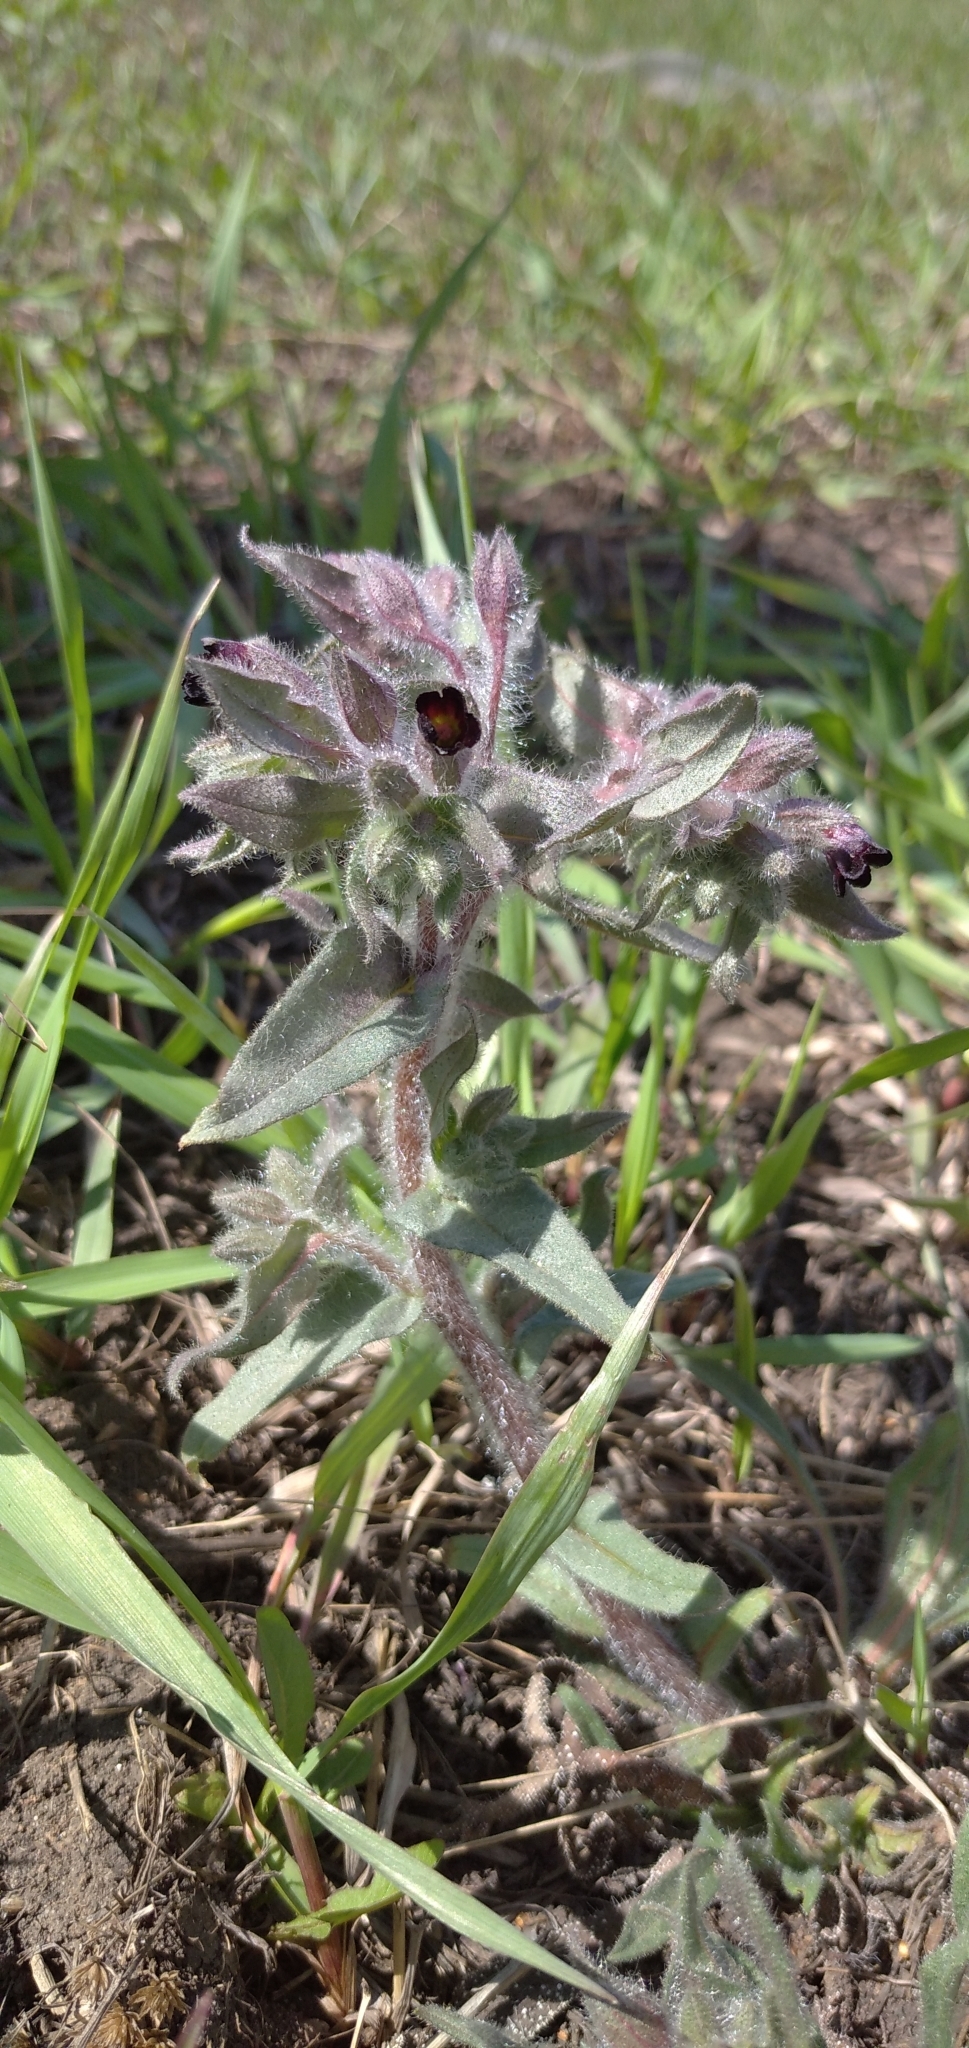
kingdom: Plantae
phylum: Tracheophyta
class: Magnoliopsida
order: Boraginales
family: Boraginaceae
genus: Nonea
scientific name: Nonea pulla
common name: Brown nonea
